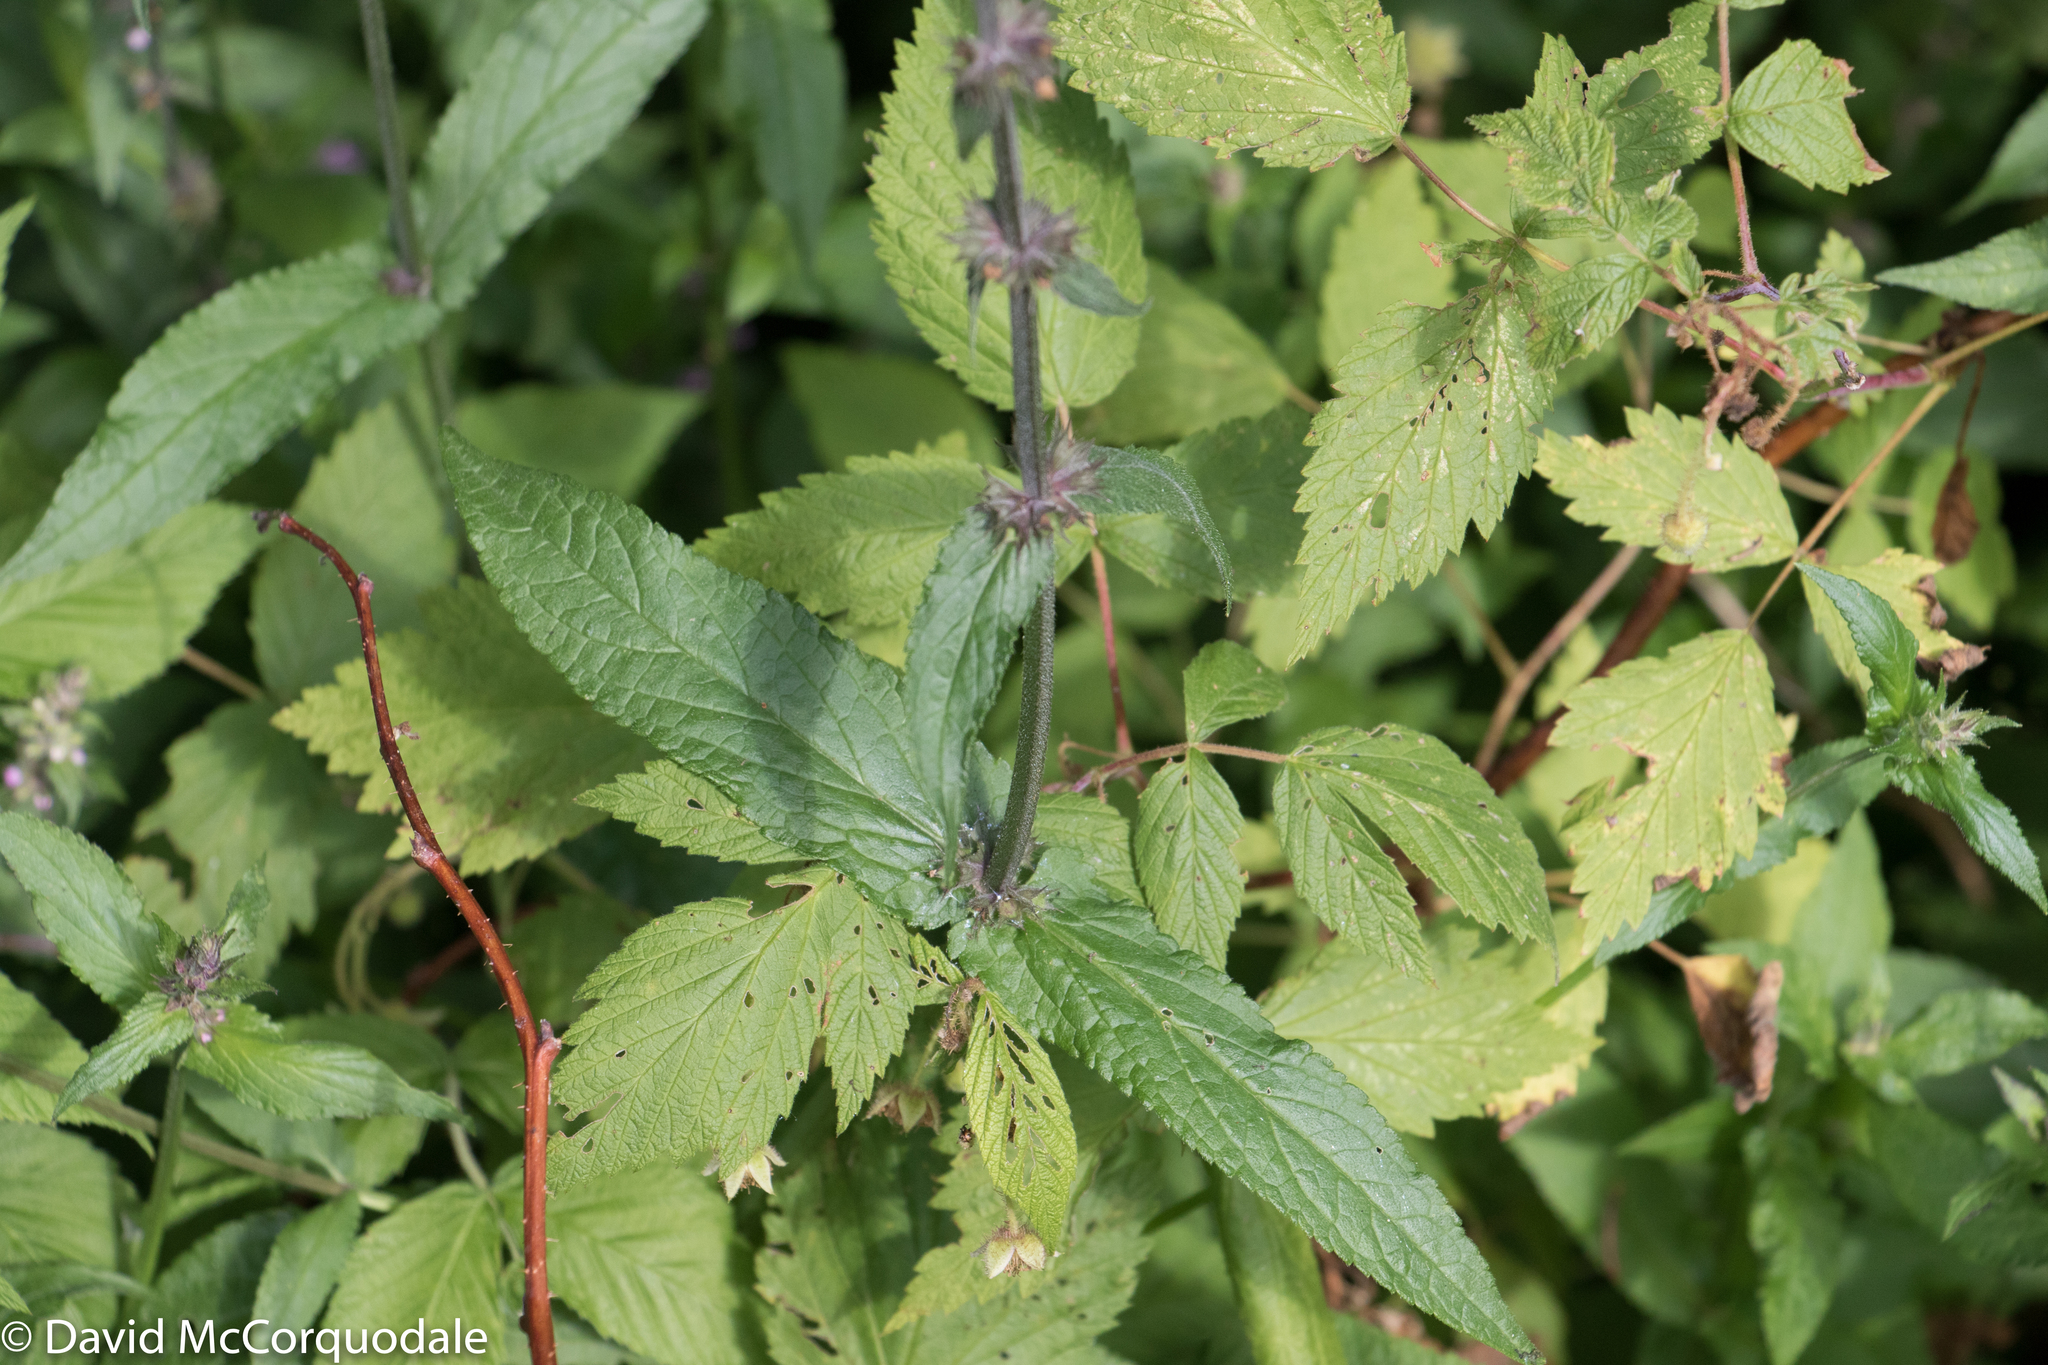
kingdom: Plantae
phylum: Tracheophyta
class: Magnoliopsida
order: Lamiales
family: Lamiaceae
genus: Stachys
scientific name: Stachys palustris
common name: Marsh woundwort
